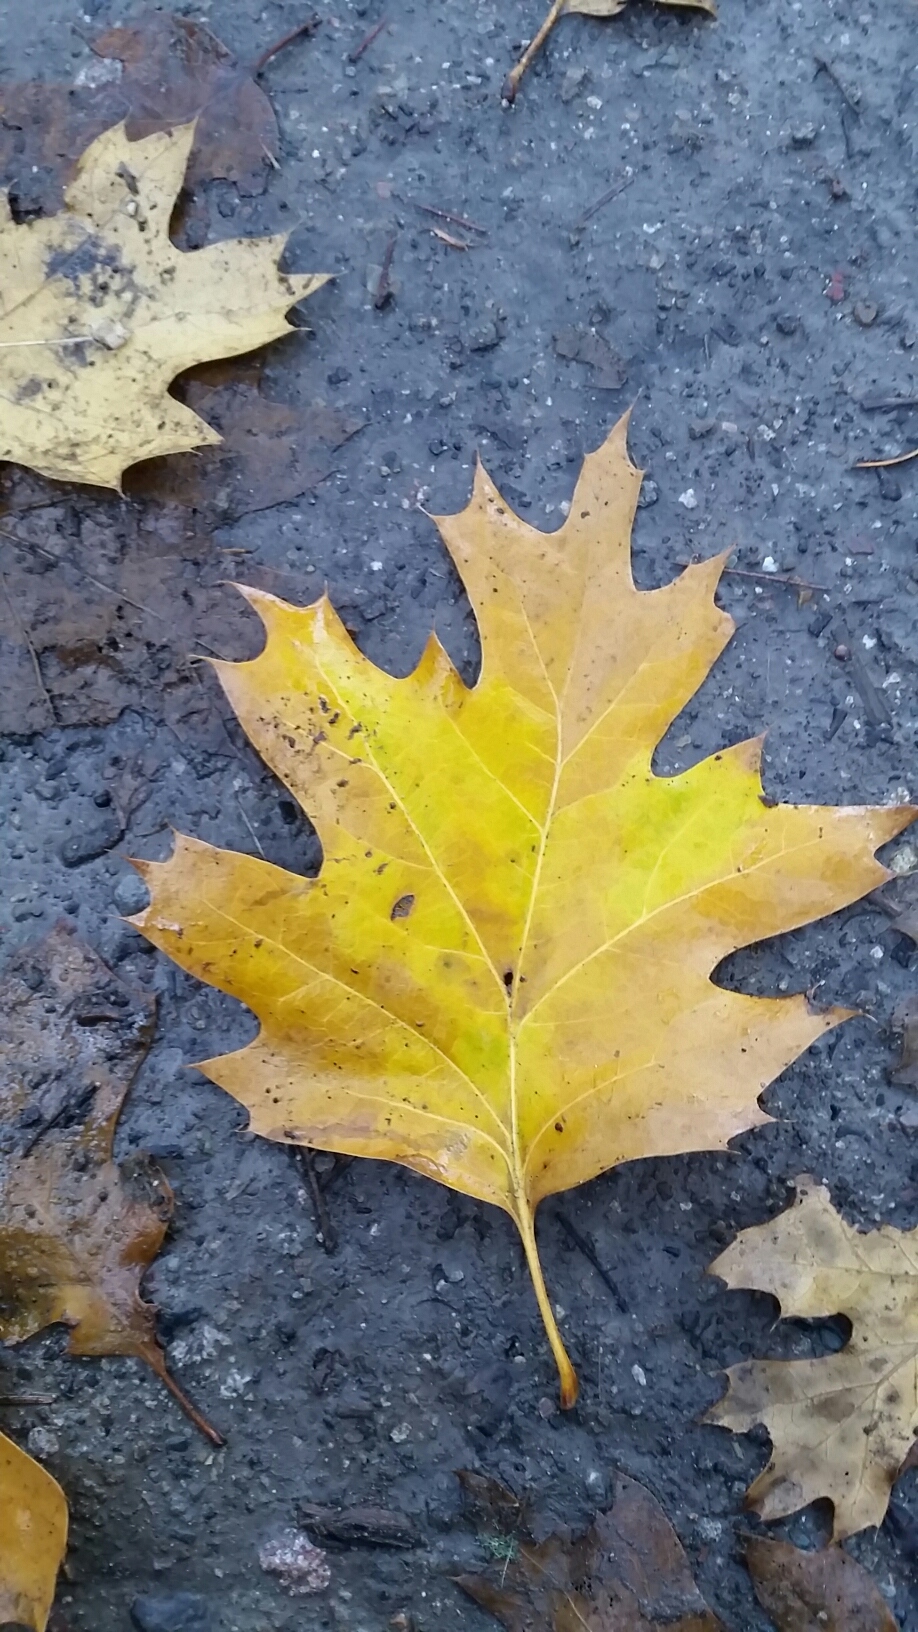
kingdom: Plantae
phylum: Tracheophyta
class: Magnoliopsida
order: Fagales
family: Fagaceae
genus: Quercus
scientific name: Quercus kelloggii
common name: California black oak
